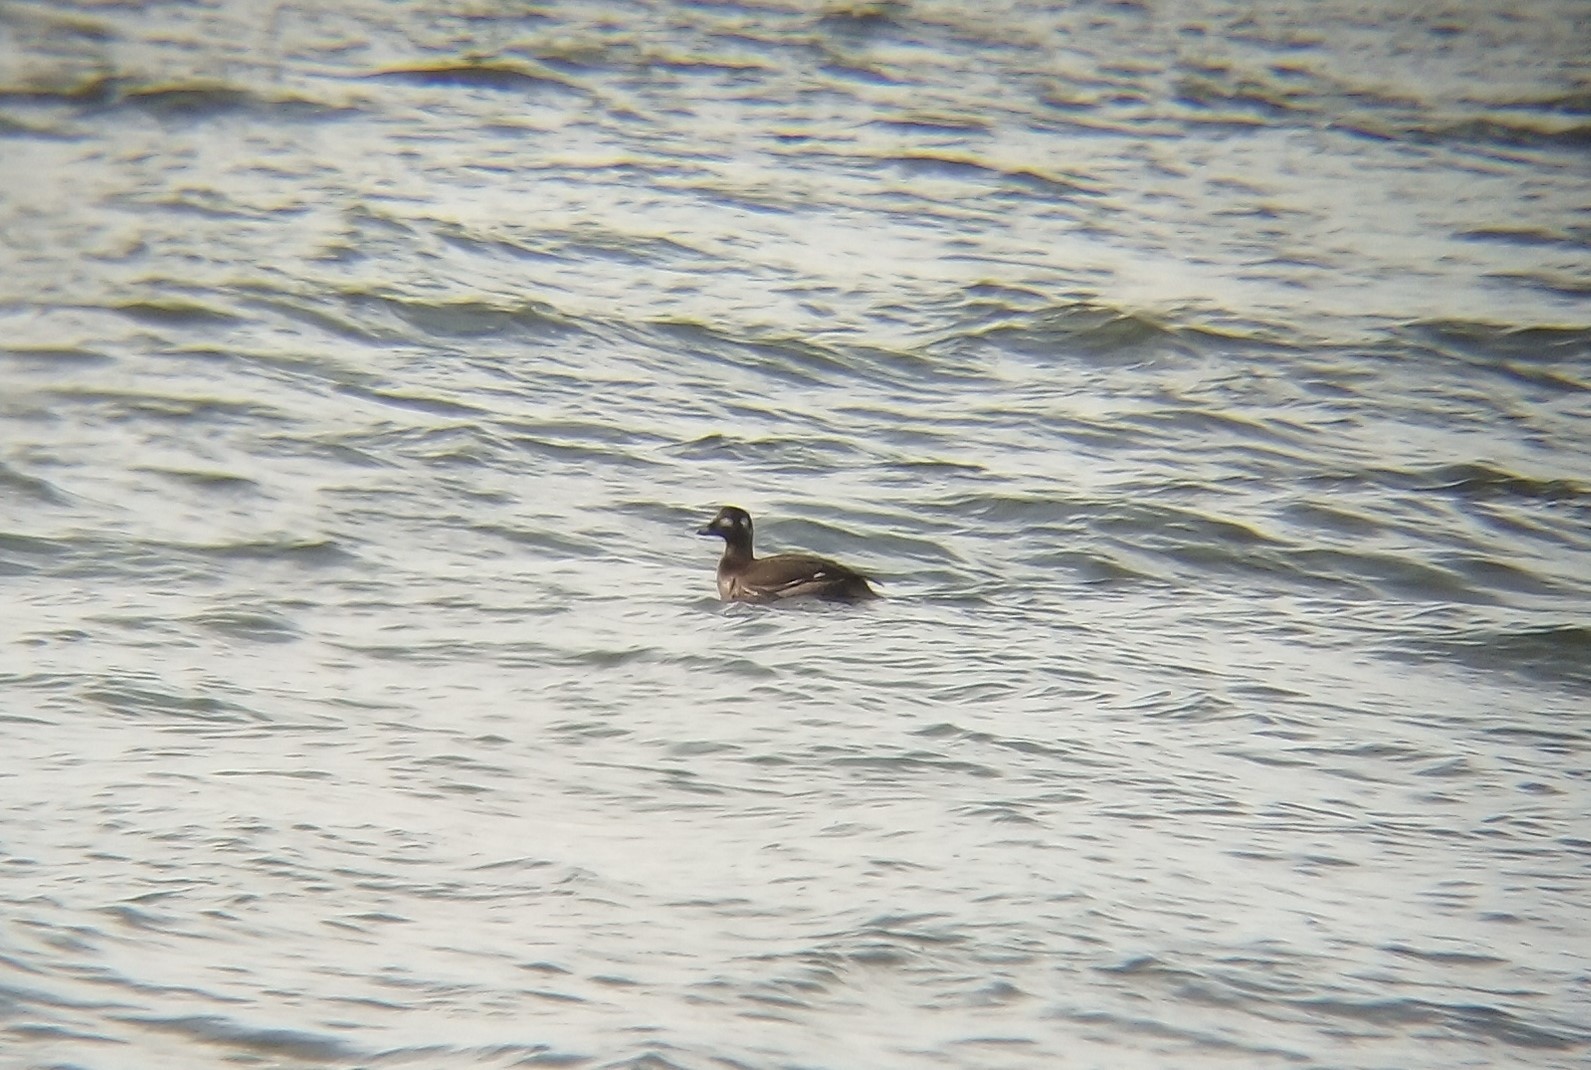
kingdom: Animalia
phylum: Chordata
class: Aves
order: Anseriformes
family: Anatidae
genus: Melanitta
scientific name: Melanitta deglandi
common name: White-winged scoter
